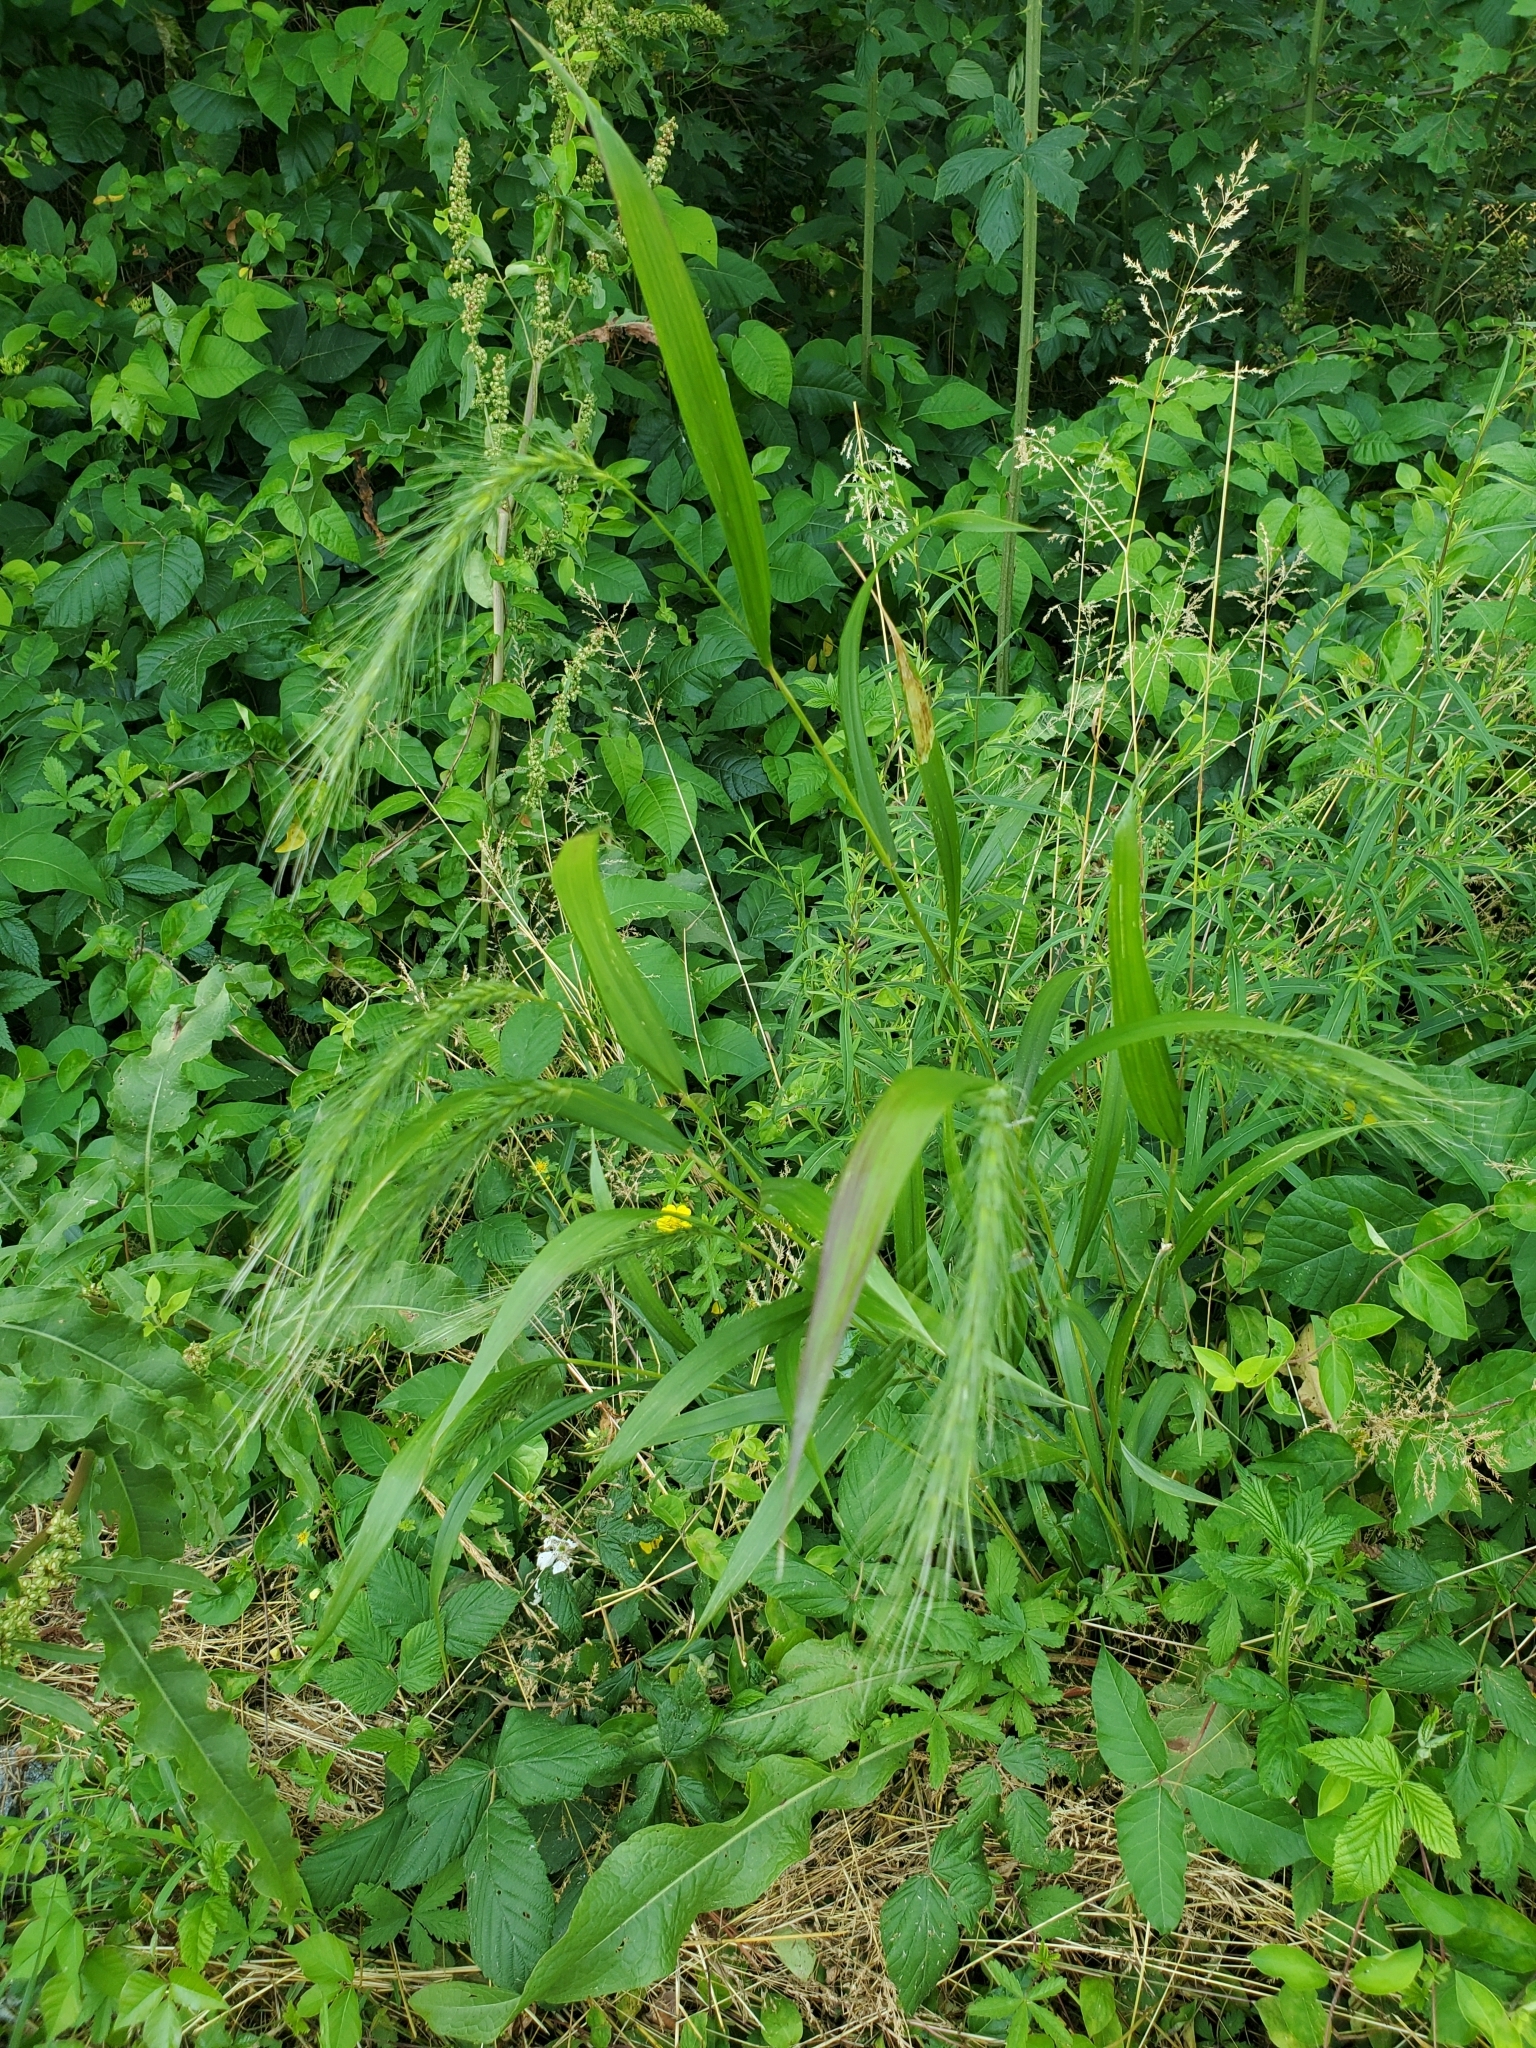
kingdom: Plantae
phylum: Tracheophyta
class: Liliopsida
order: Poales
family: Poaceae
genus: Elymus
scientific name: Elymus villosus
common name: Downy wild rye
